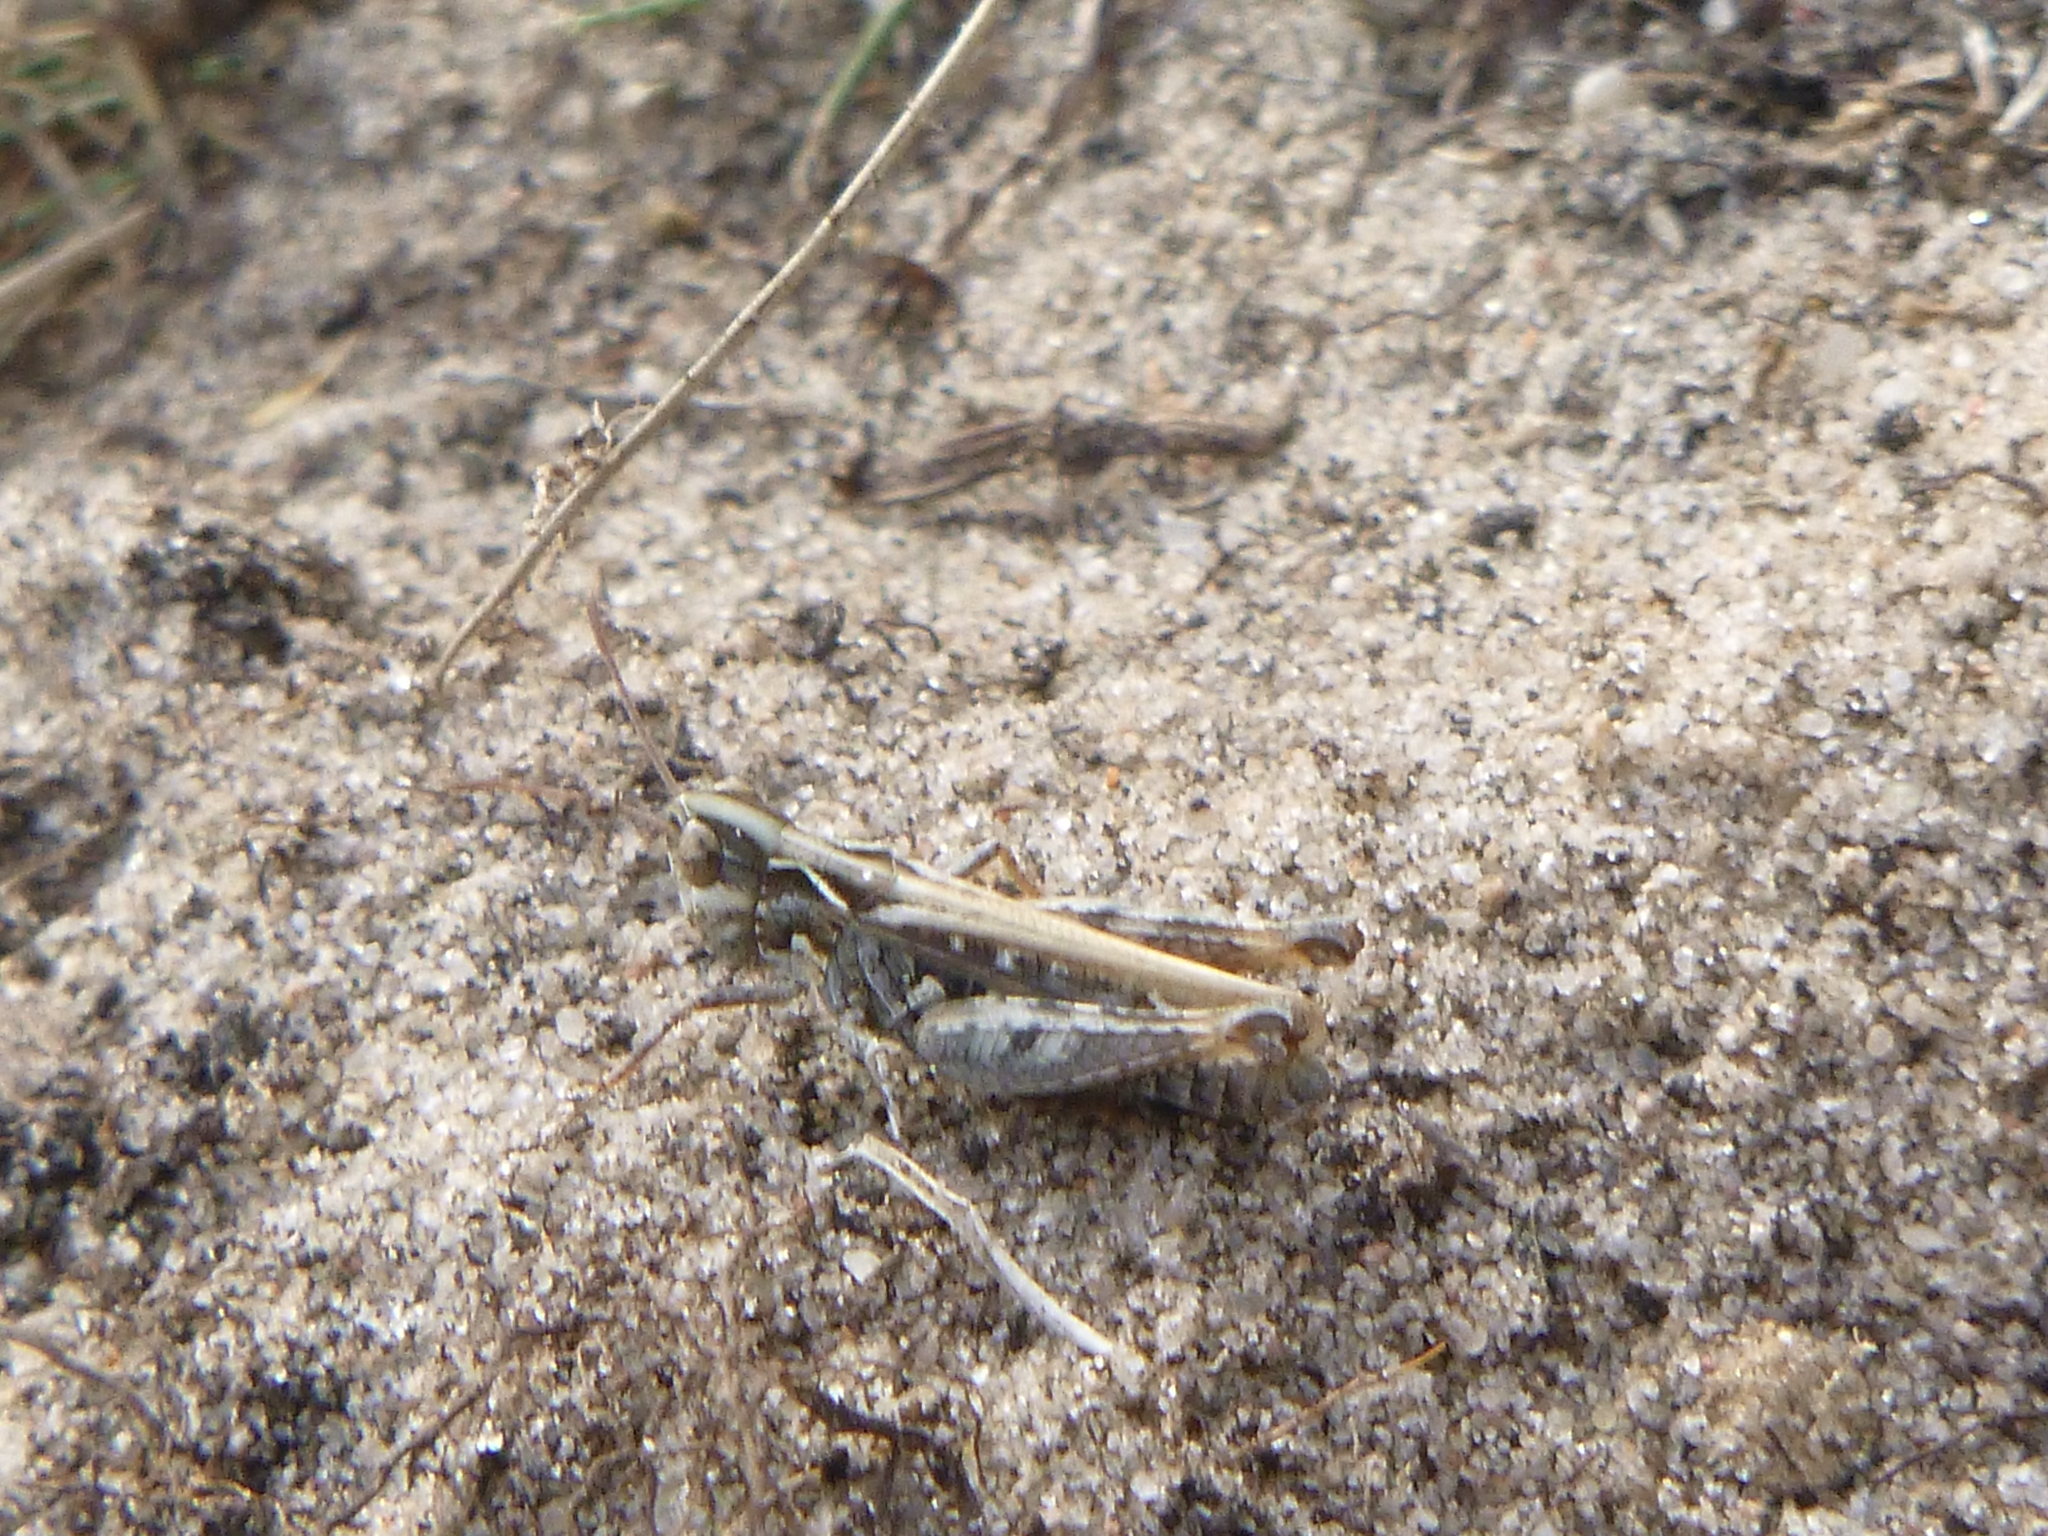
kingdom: Animalia
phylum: Arthropoda
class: Insecta
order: Orthoptera
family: Acrididae
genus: Myrmeleotettix
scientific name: Myrmeleotettix maculatus
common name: Mottled grasshopper
